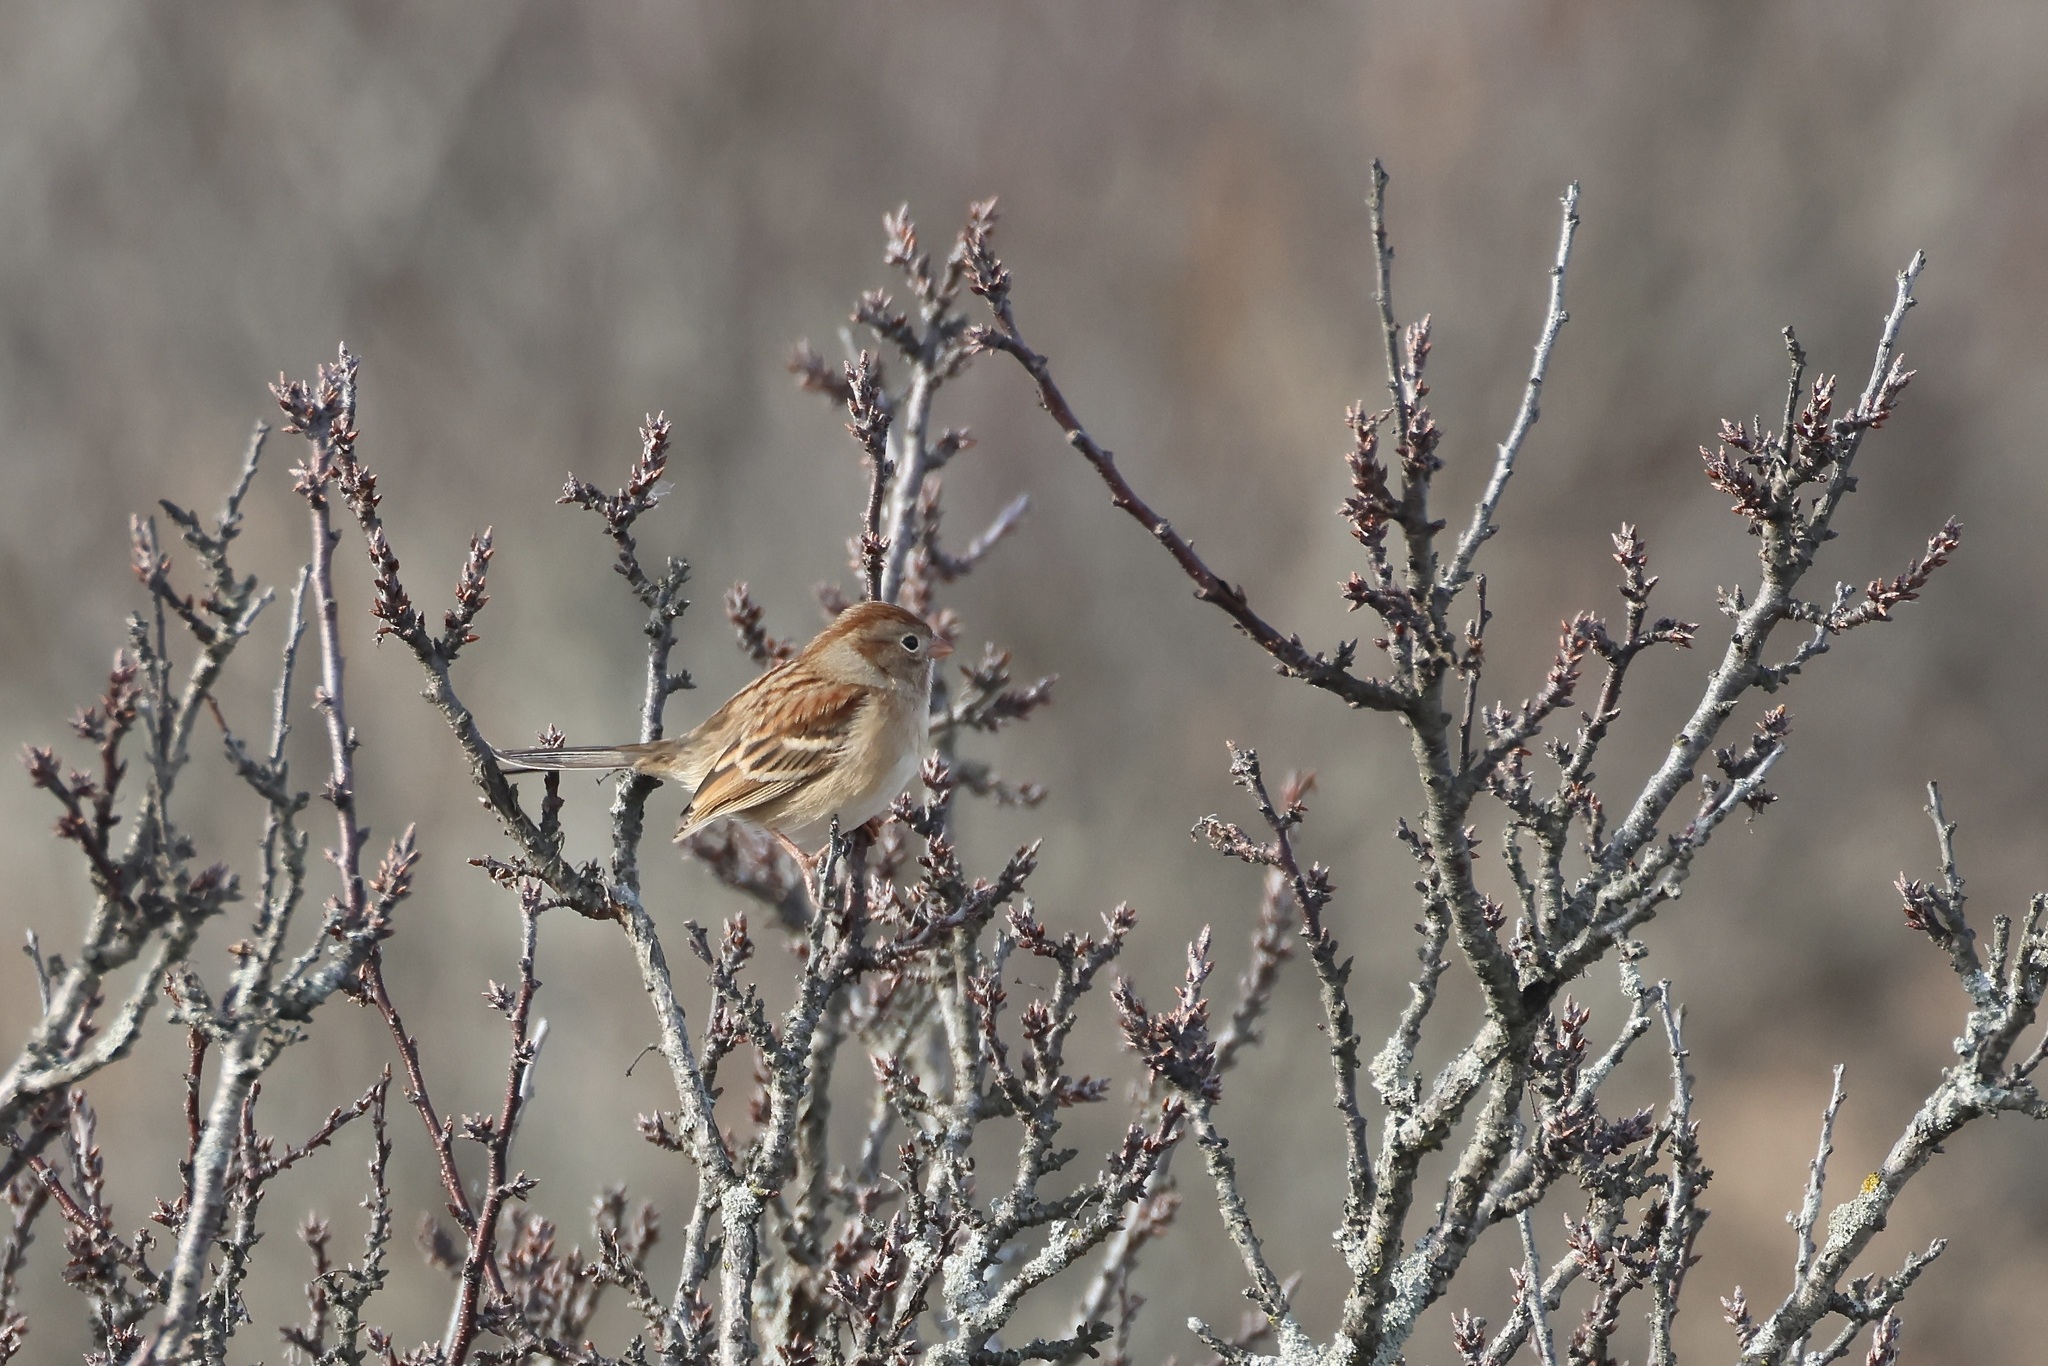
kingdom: Animalia
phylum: Chordata
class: Aves
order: Passeriformes
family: Passerellidae
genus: Spizella
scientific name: Spizella pusilla
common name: Field sparrow
